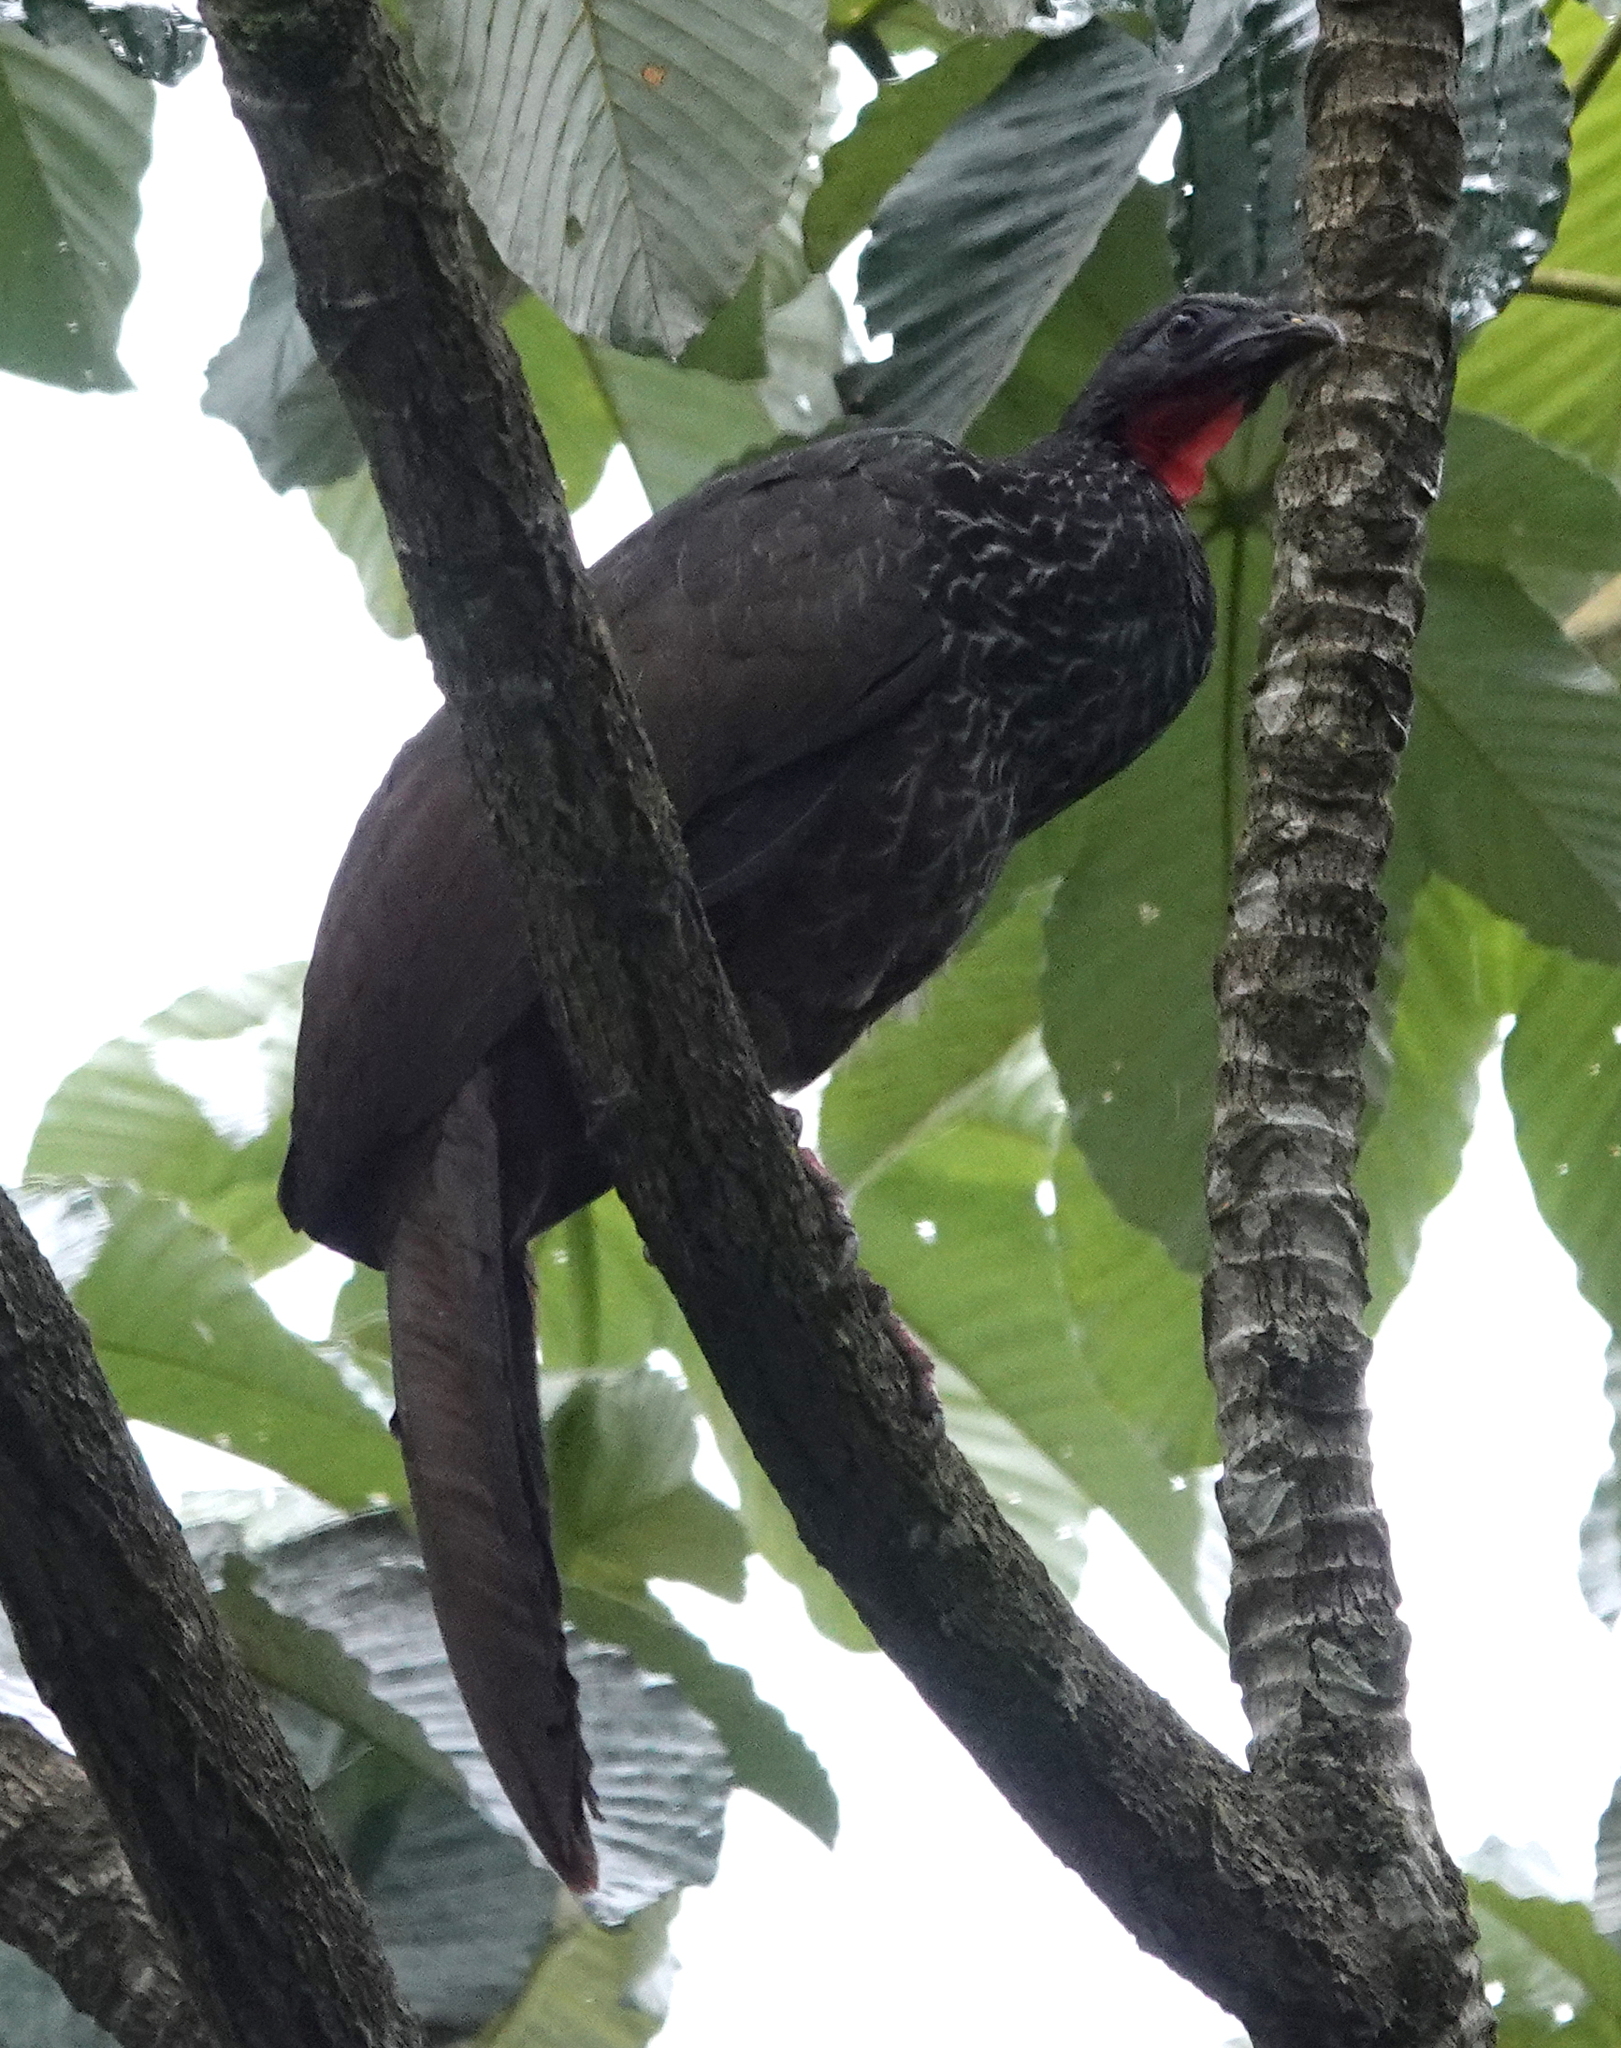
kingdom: Animalia
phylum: Chordata
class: Aves
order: Galliformes
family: Cracidae
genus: Penelope
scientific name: Penelope perspicax
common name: Cauca guan
